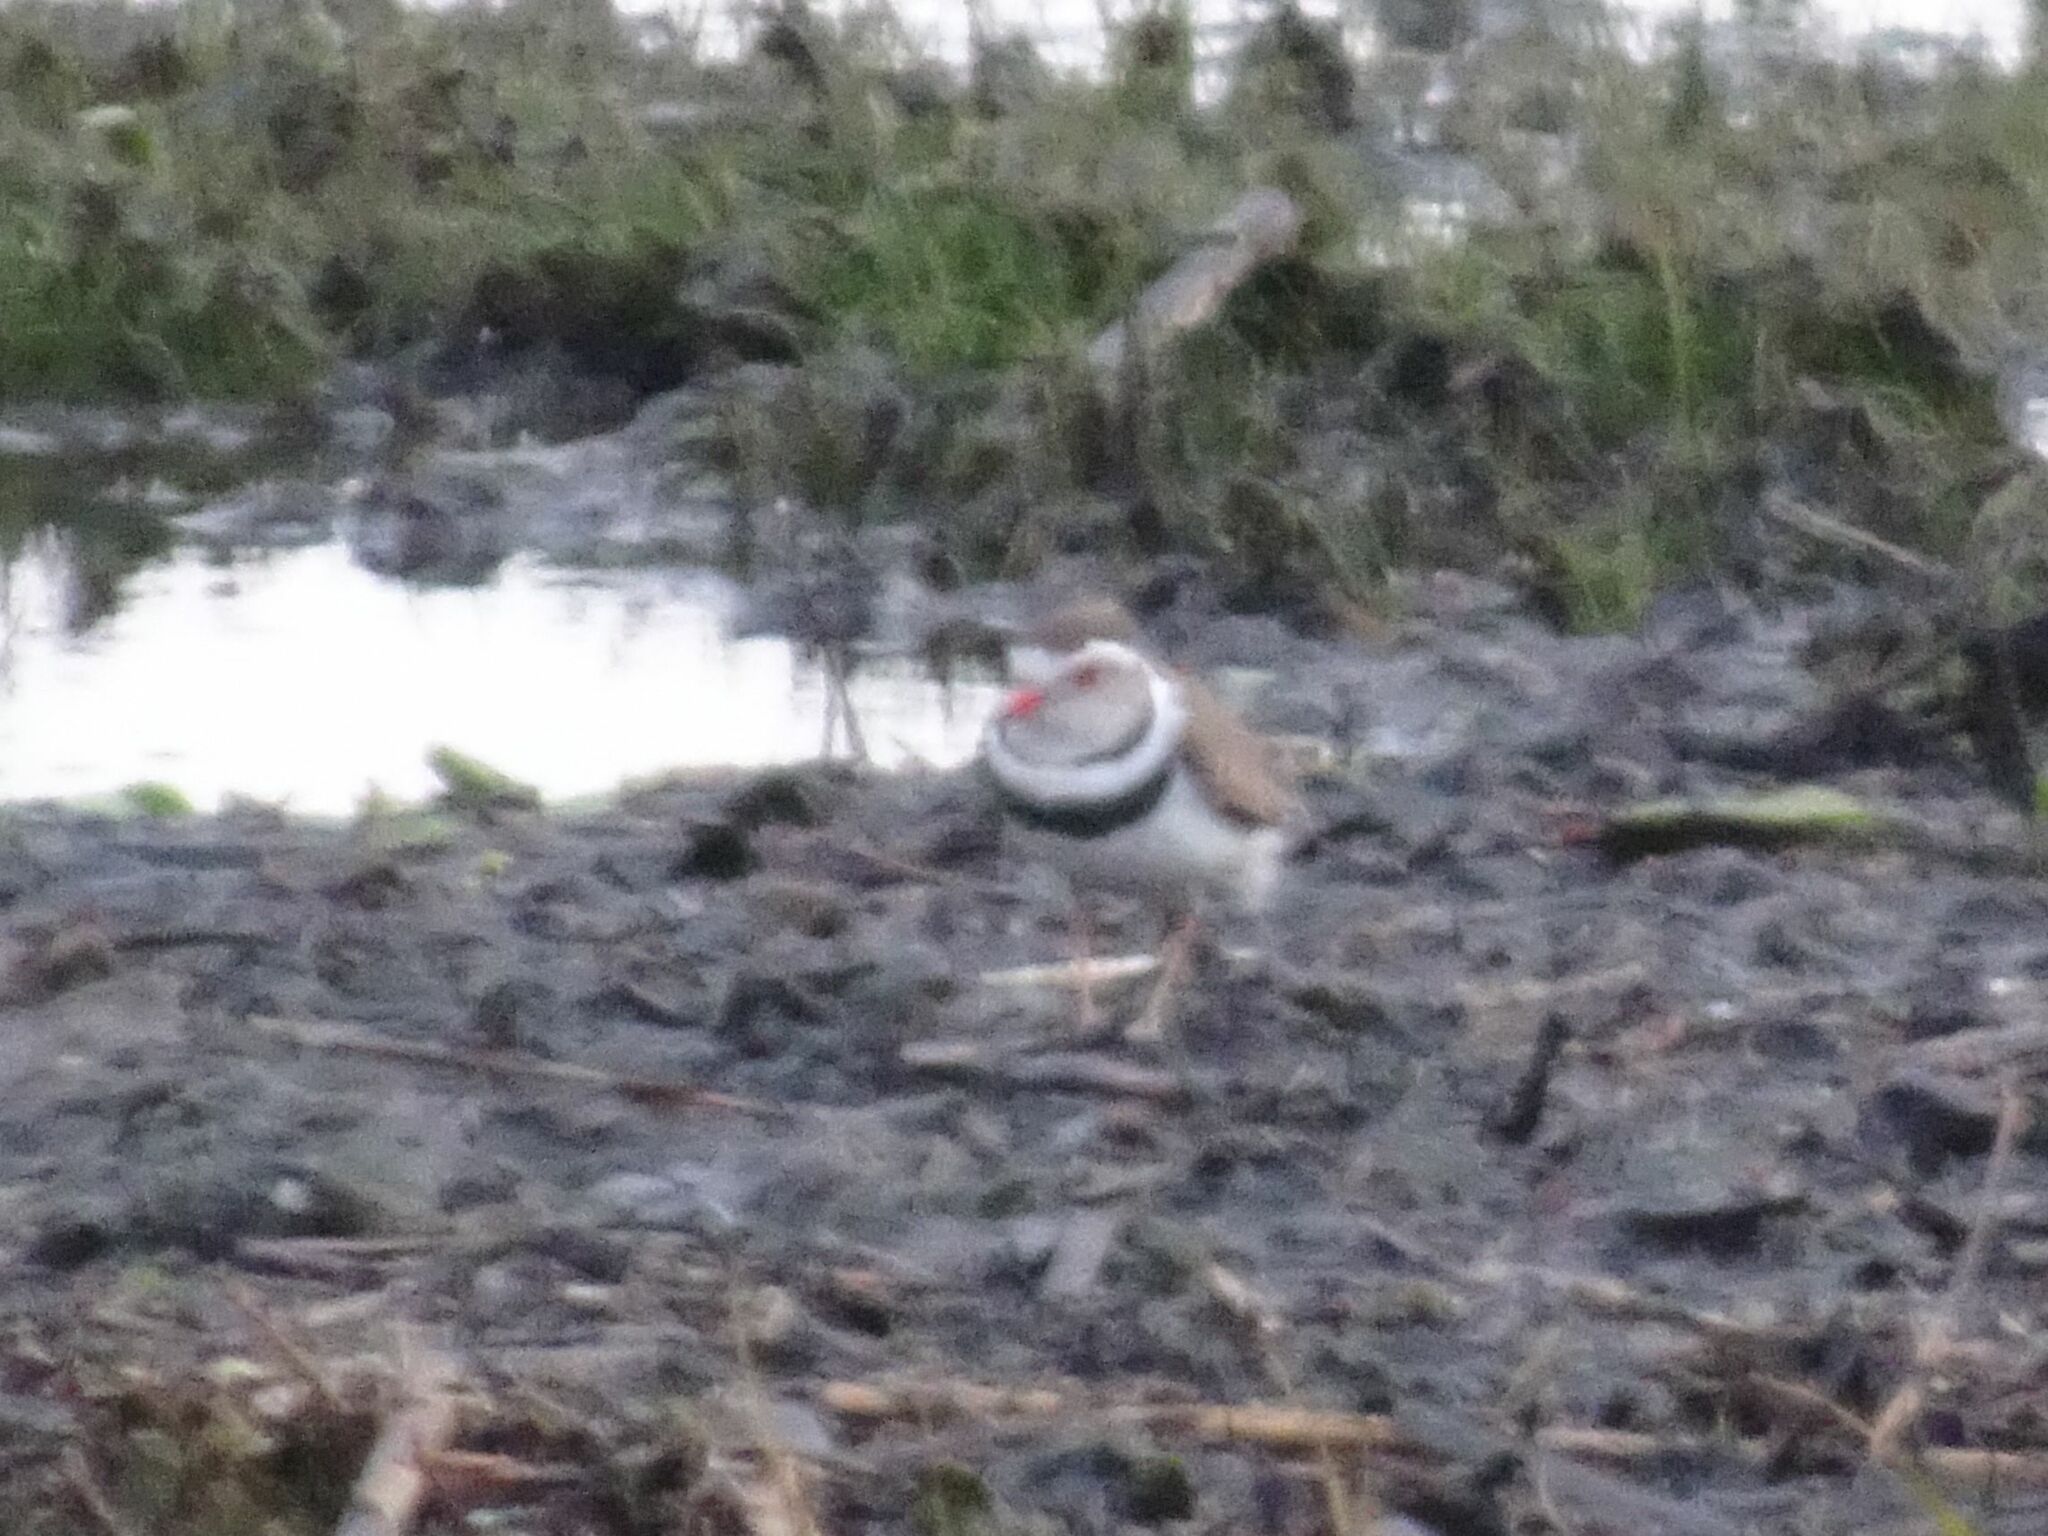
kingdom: Animalia
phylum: Chordata
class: Aves
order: Charadriiformes
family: Charadriidae
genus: Charadrius
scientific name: Charadrius tricollaris
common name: Three-banded plover
